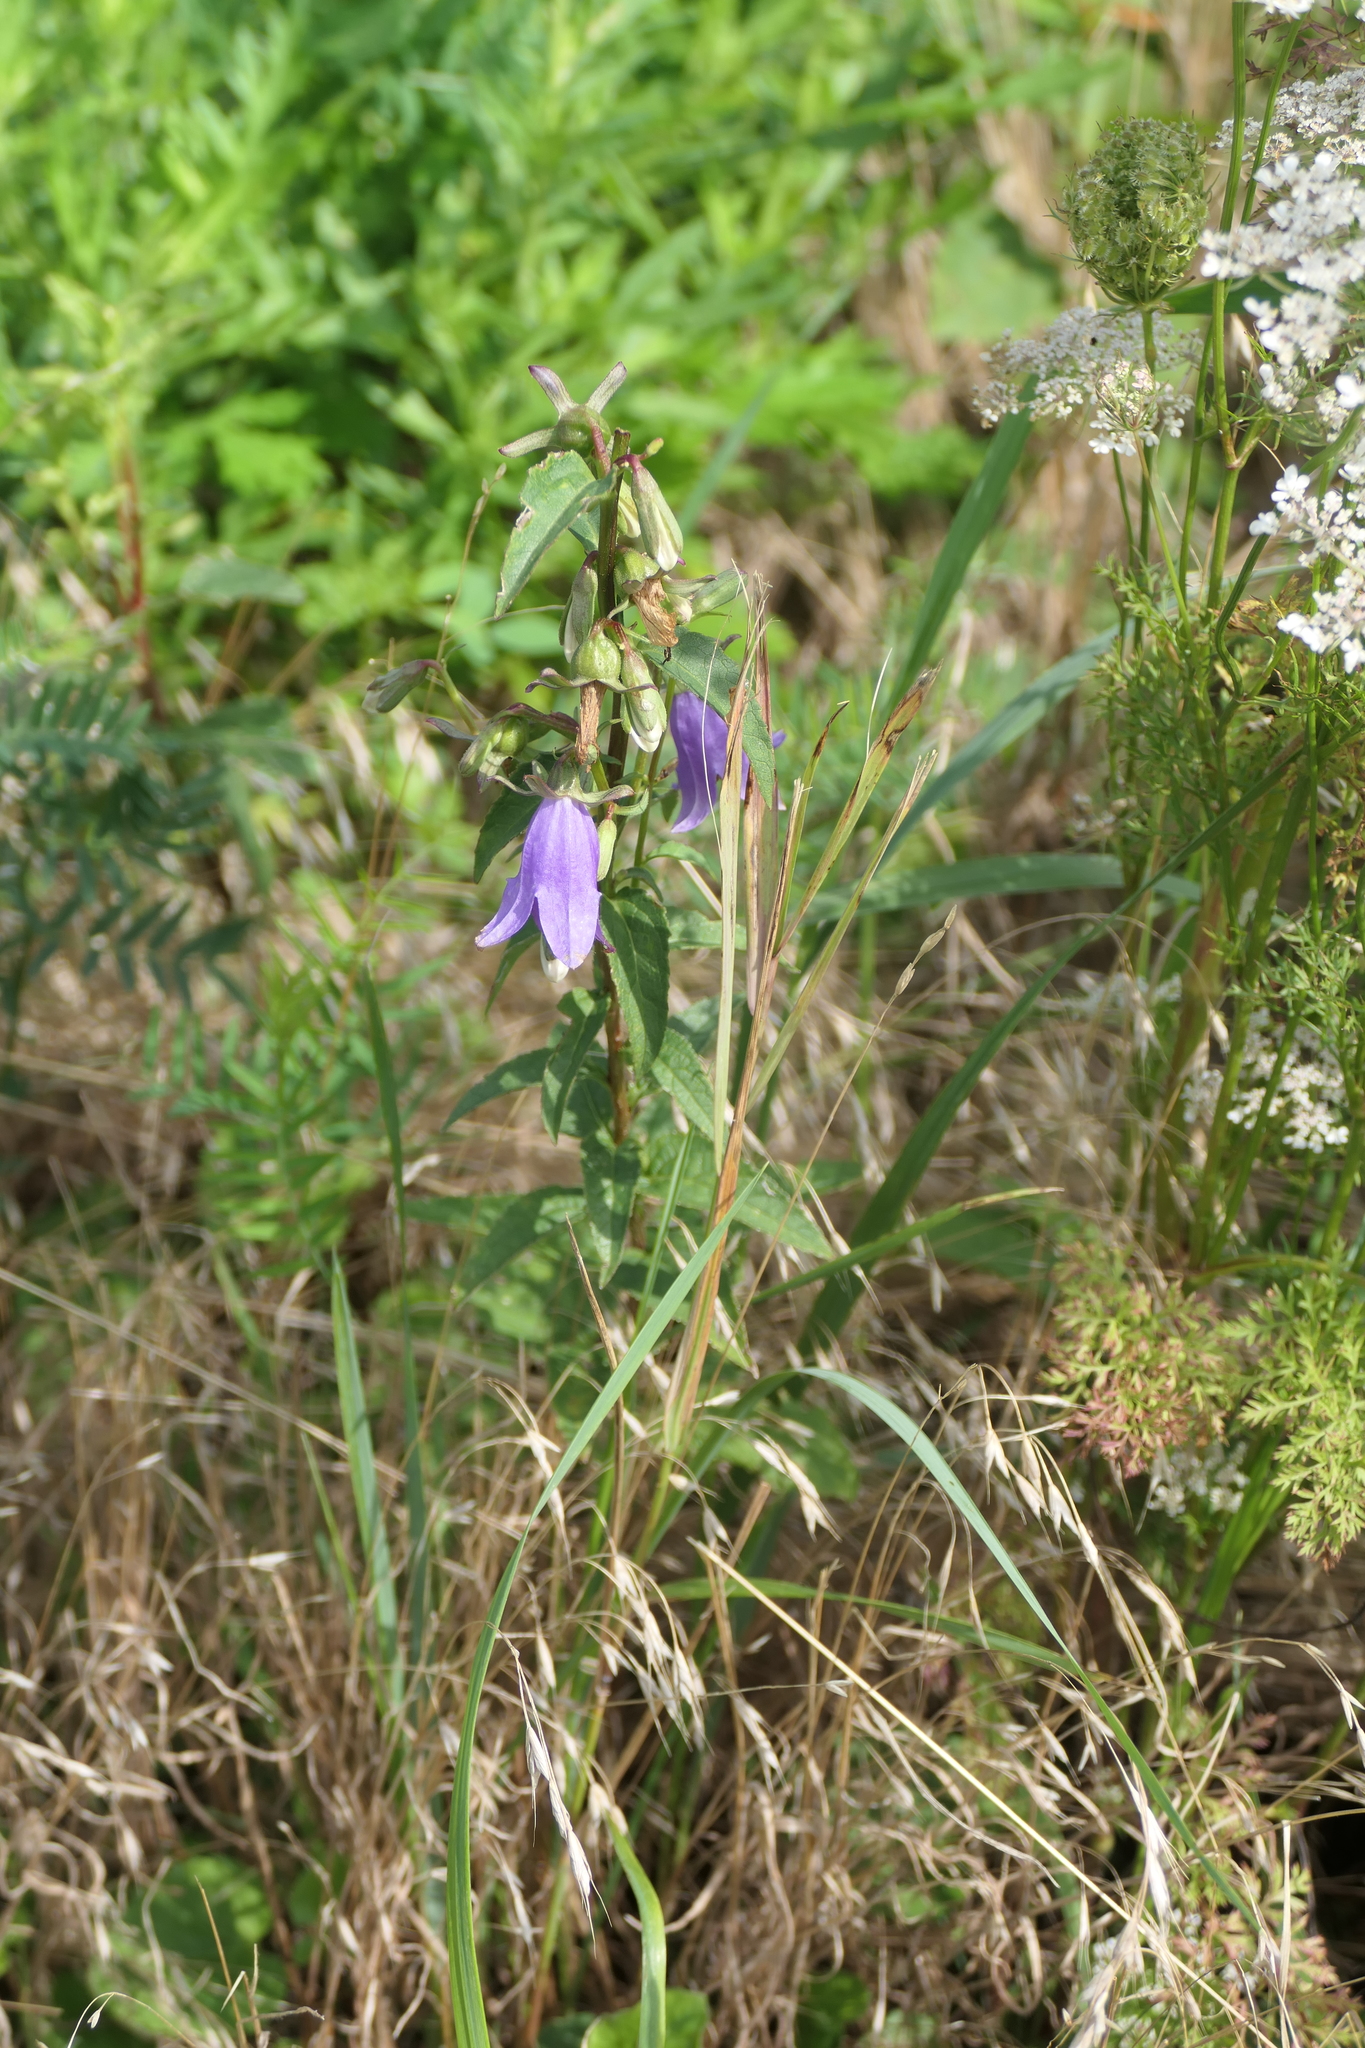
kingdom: Plantae
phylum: Tracheophyta
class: Magnoliopsida
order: Asterales
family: Campanulaceae
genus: Campanula
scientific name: Campanula rapunculoides
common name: Creeping bellflower
